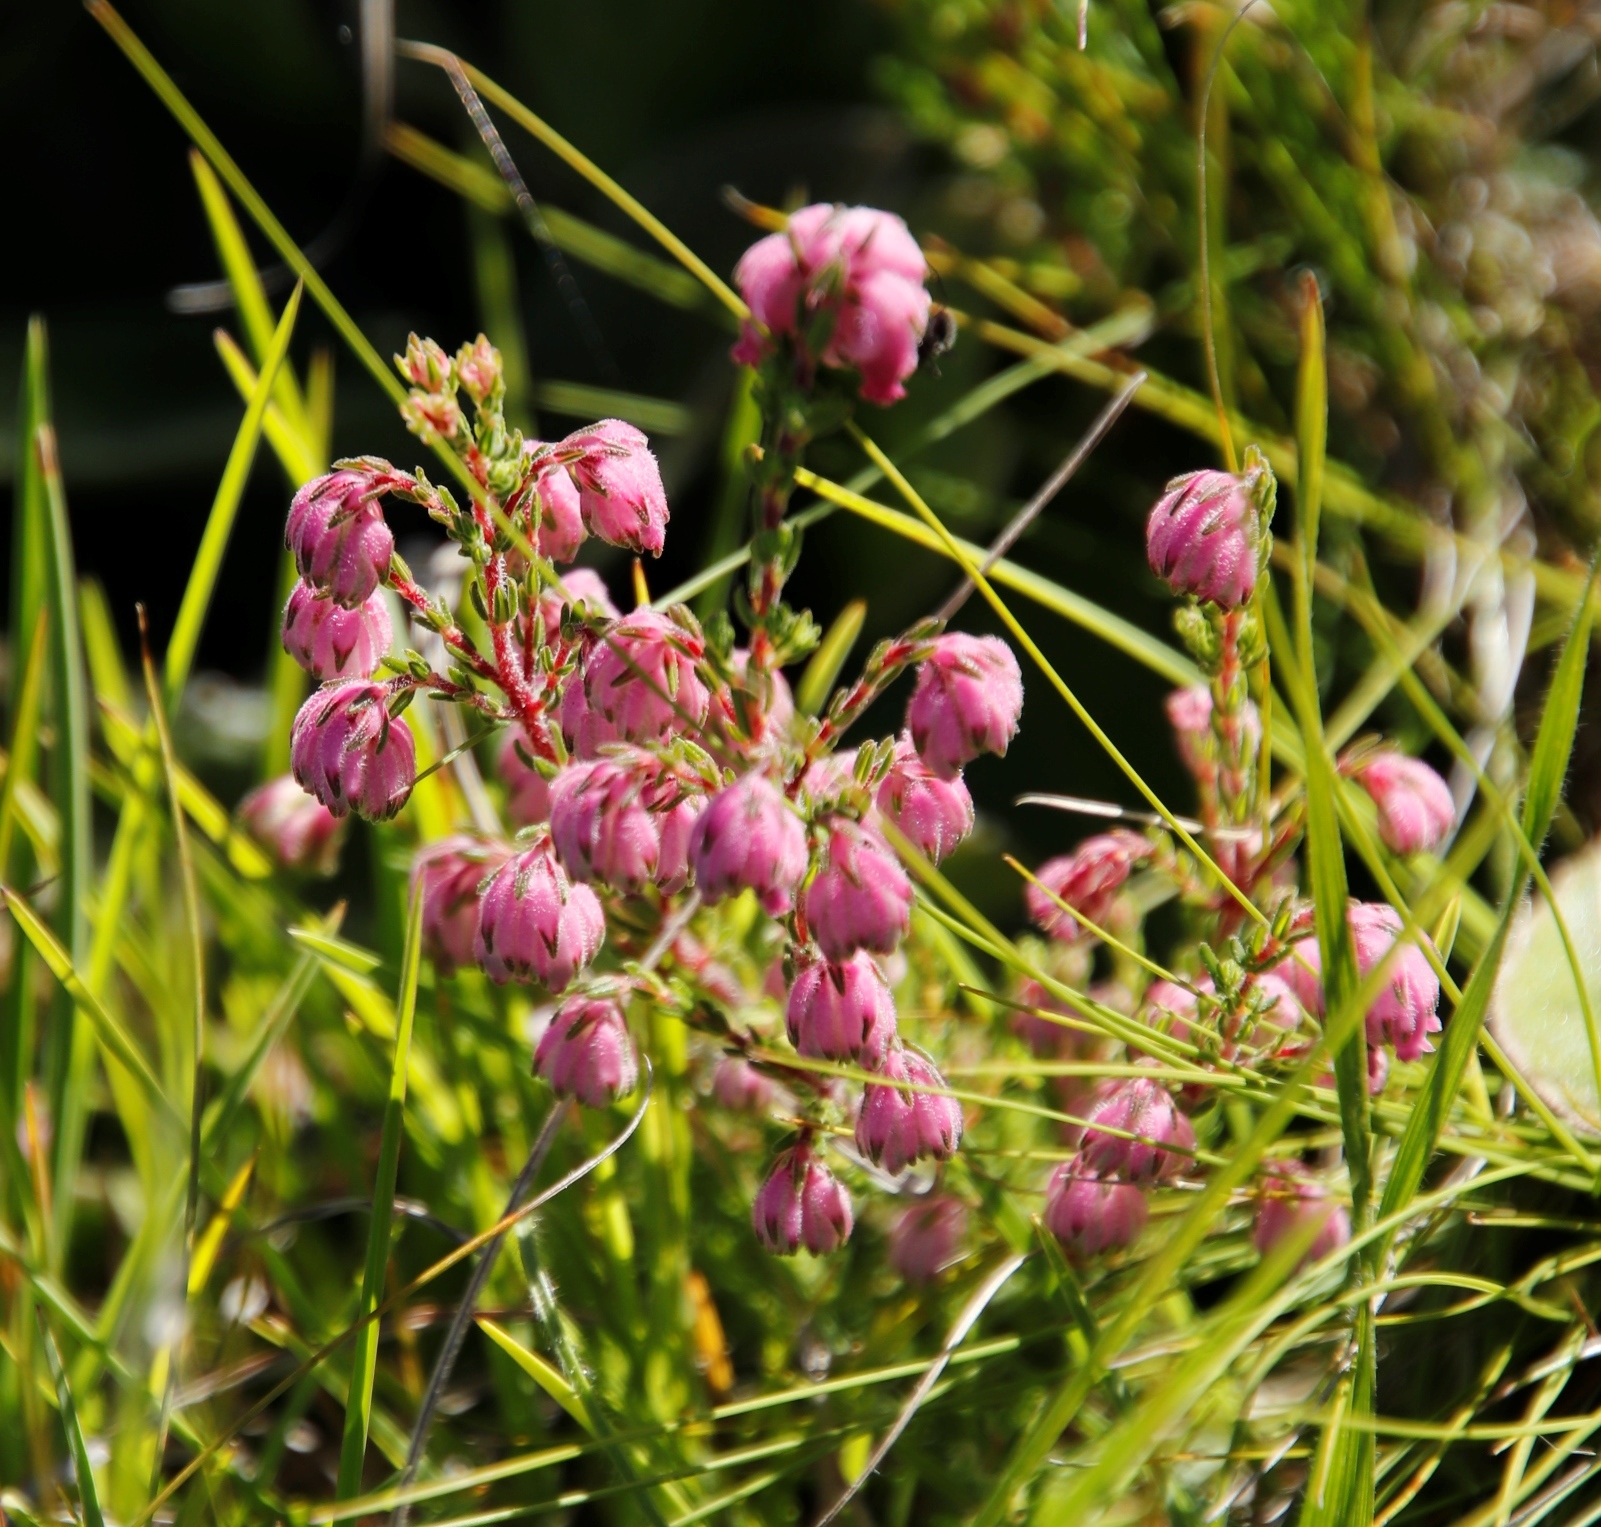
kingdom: Plantae
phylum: Tracheophyta
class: Magnoliopsida
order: Ericales
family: Ericaceae
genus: Erica
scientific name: Erica cooperi
